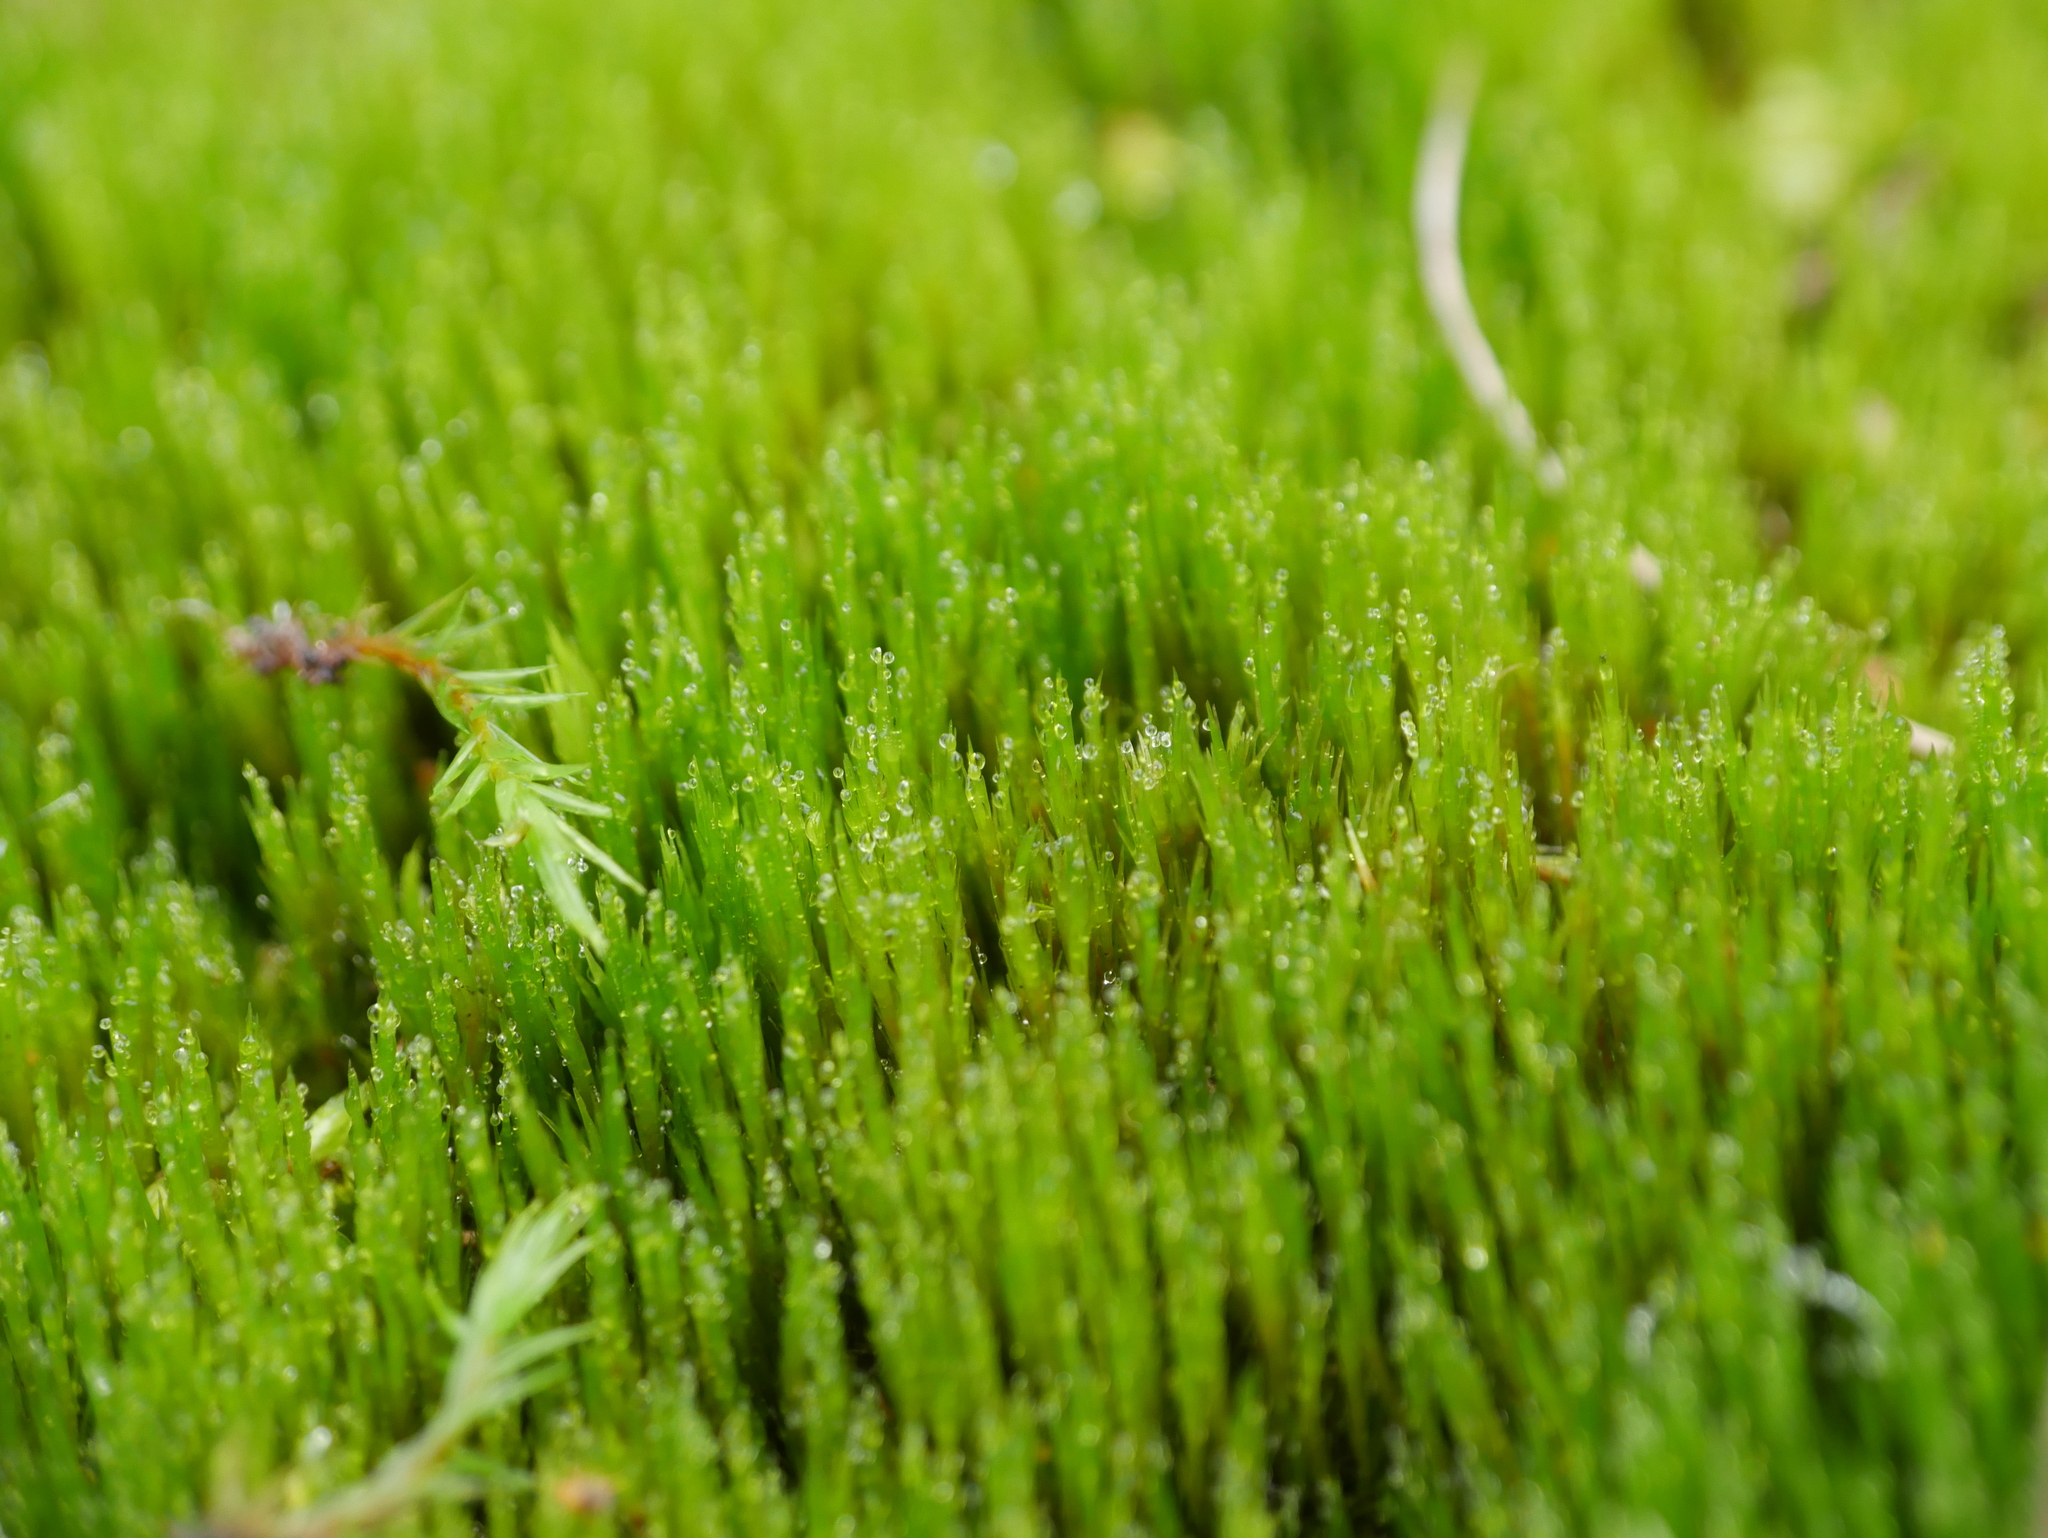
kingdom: Plantae
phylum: Bryophyta
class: Bryopsida
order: Dicranales
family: Leucobryaceae
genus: Campylopus
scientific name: Campylopus introflexus
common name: Heath star moss
